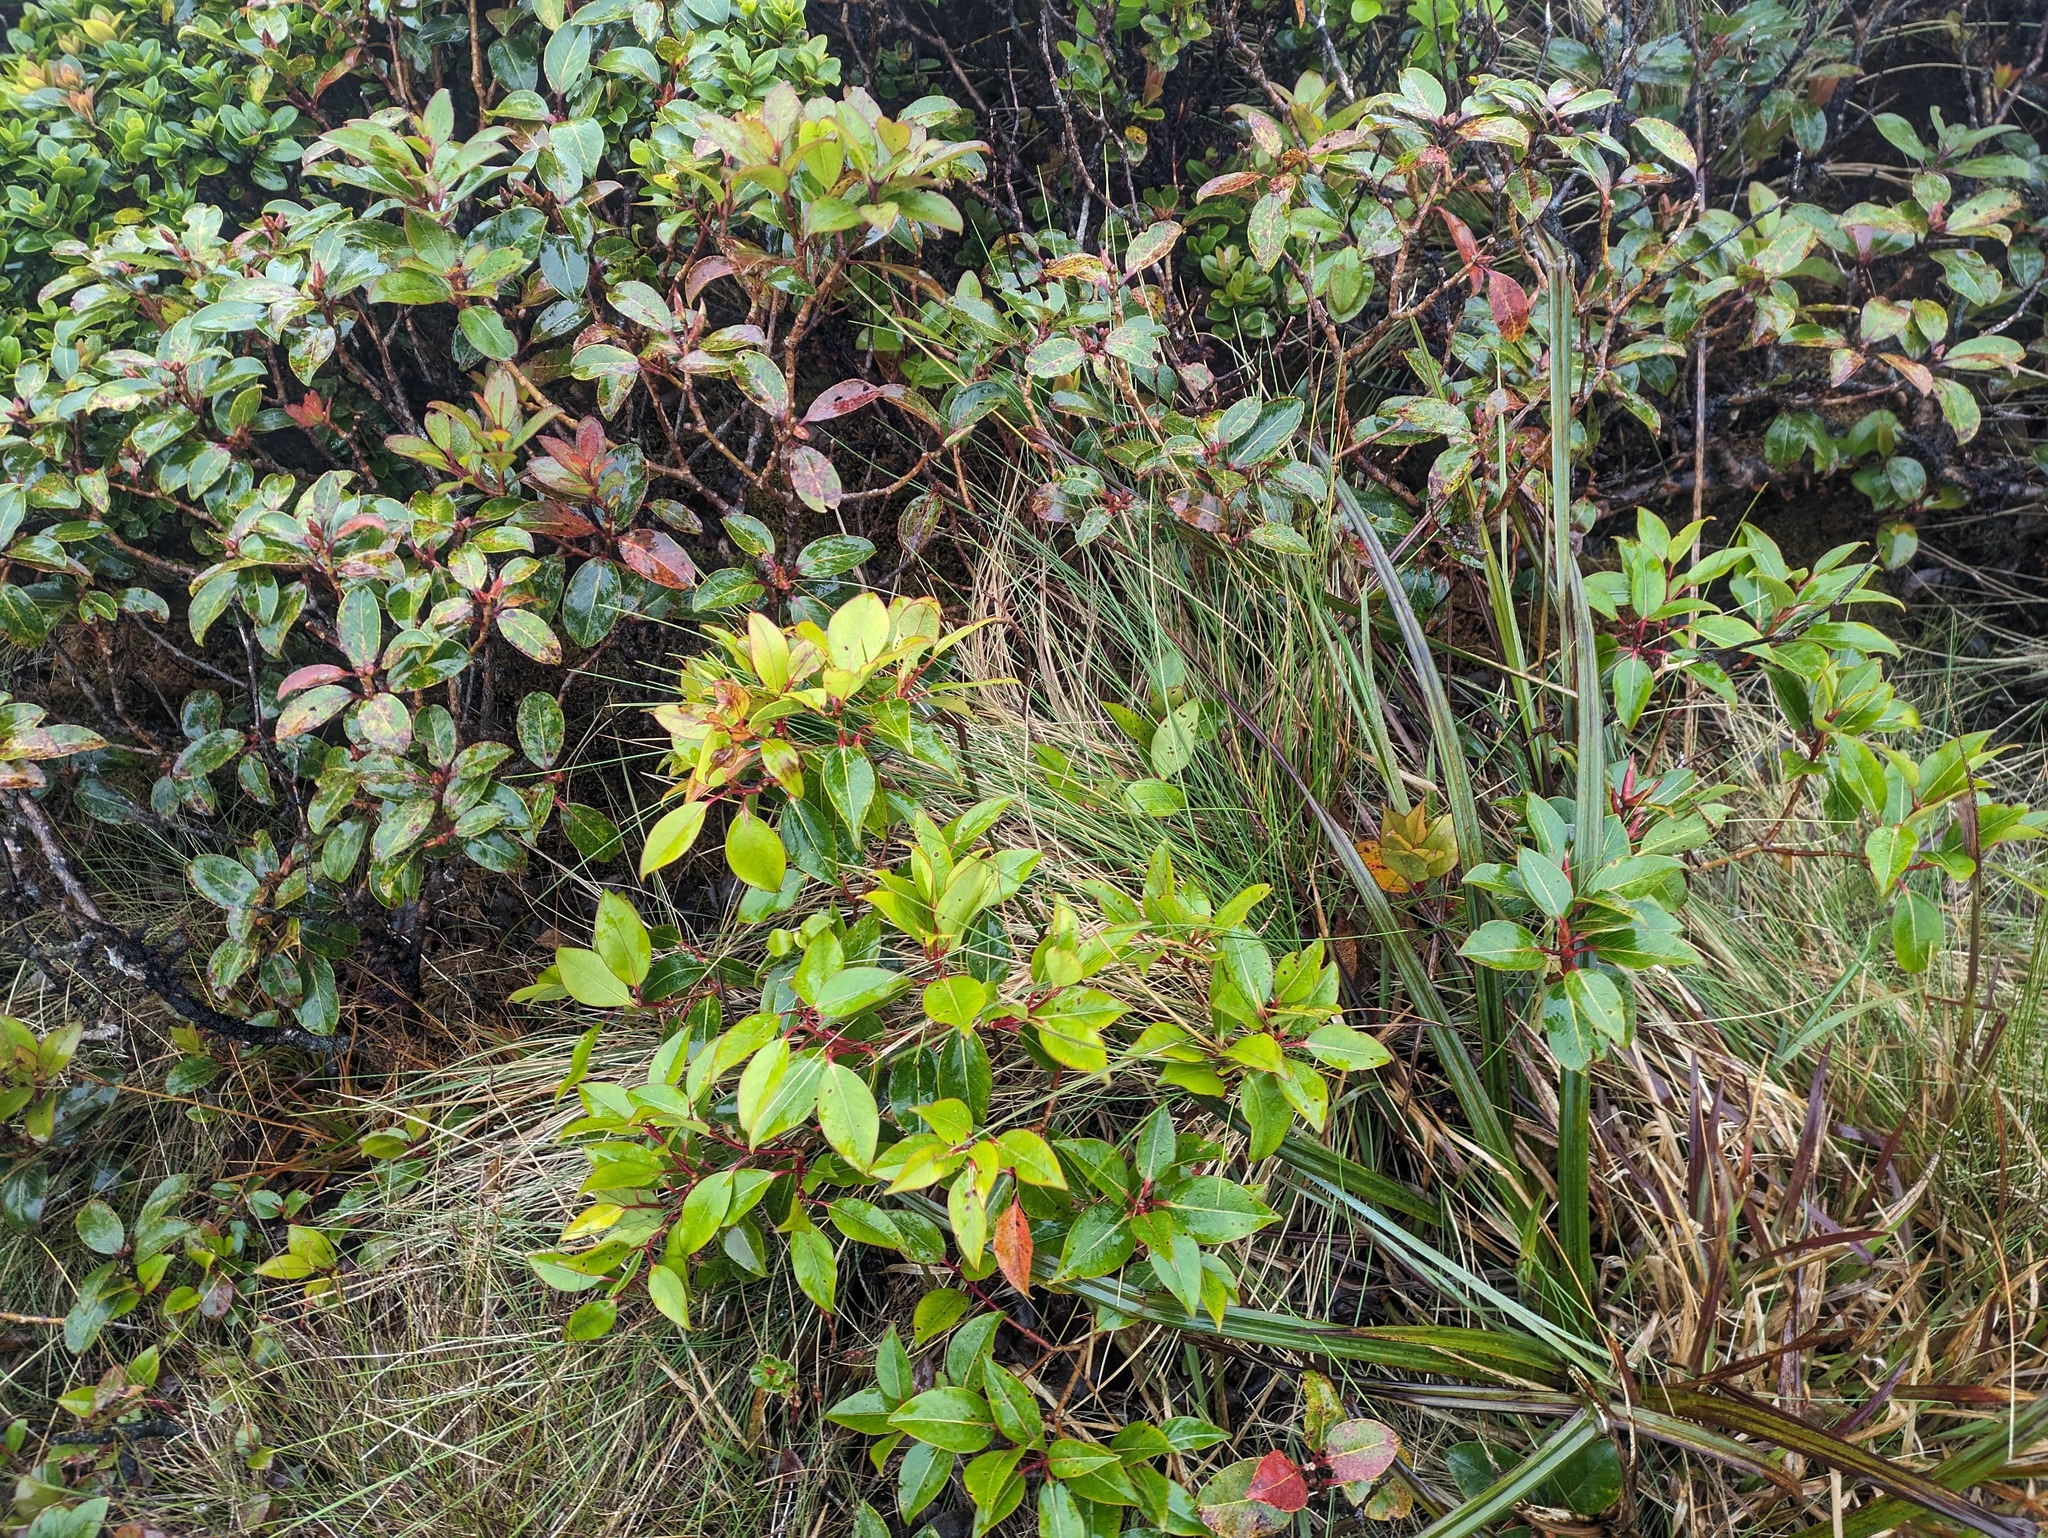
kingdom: Plantae
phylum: Tracheophyta
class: Magnoliopsida
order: Myrtales
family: Myrtaceae
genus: Metrosideros
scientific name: Metrosideros waialealae
